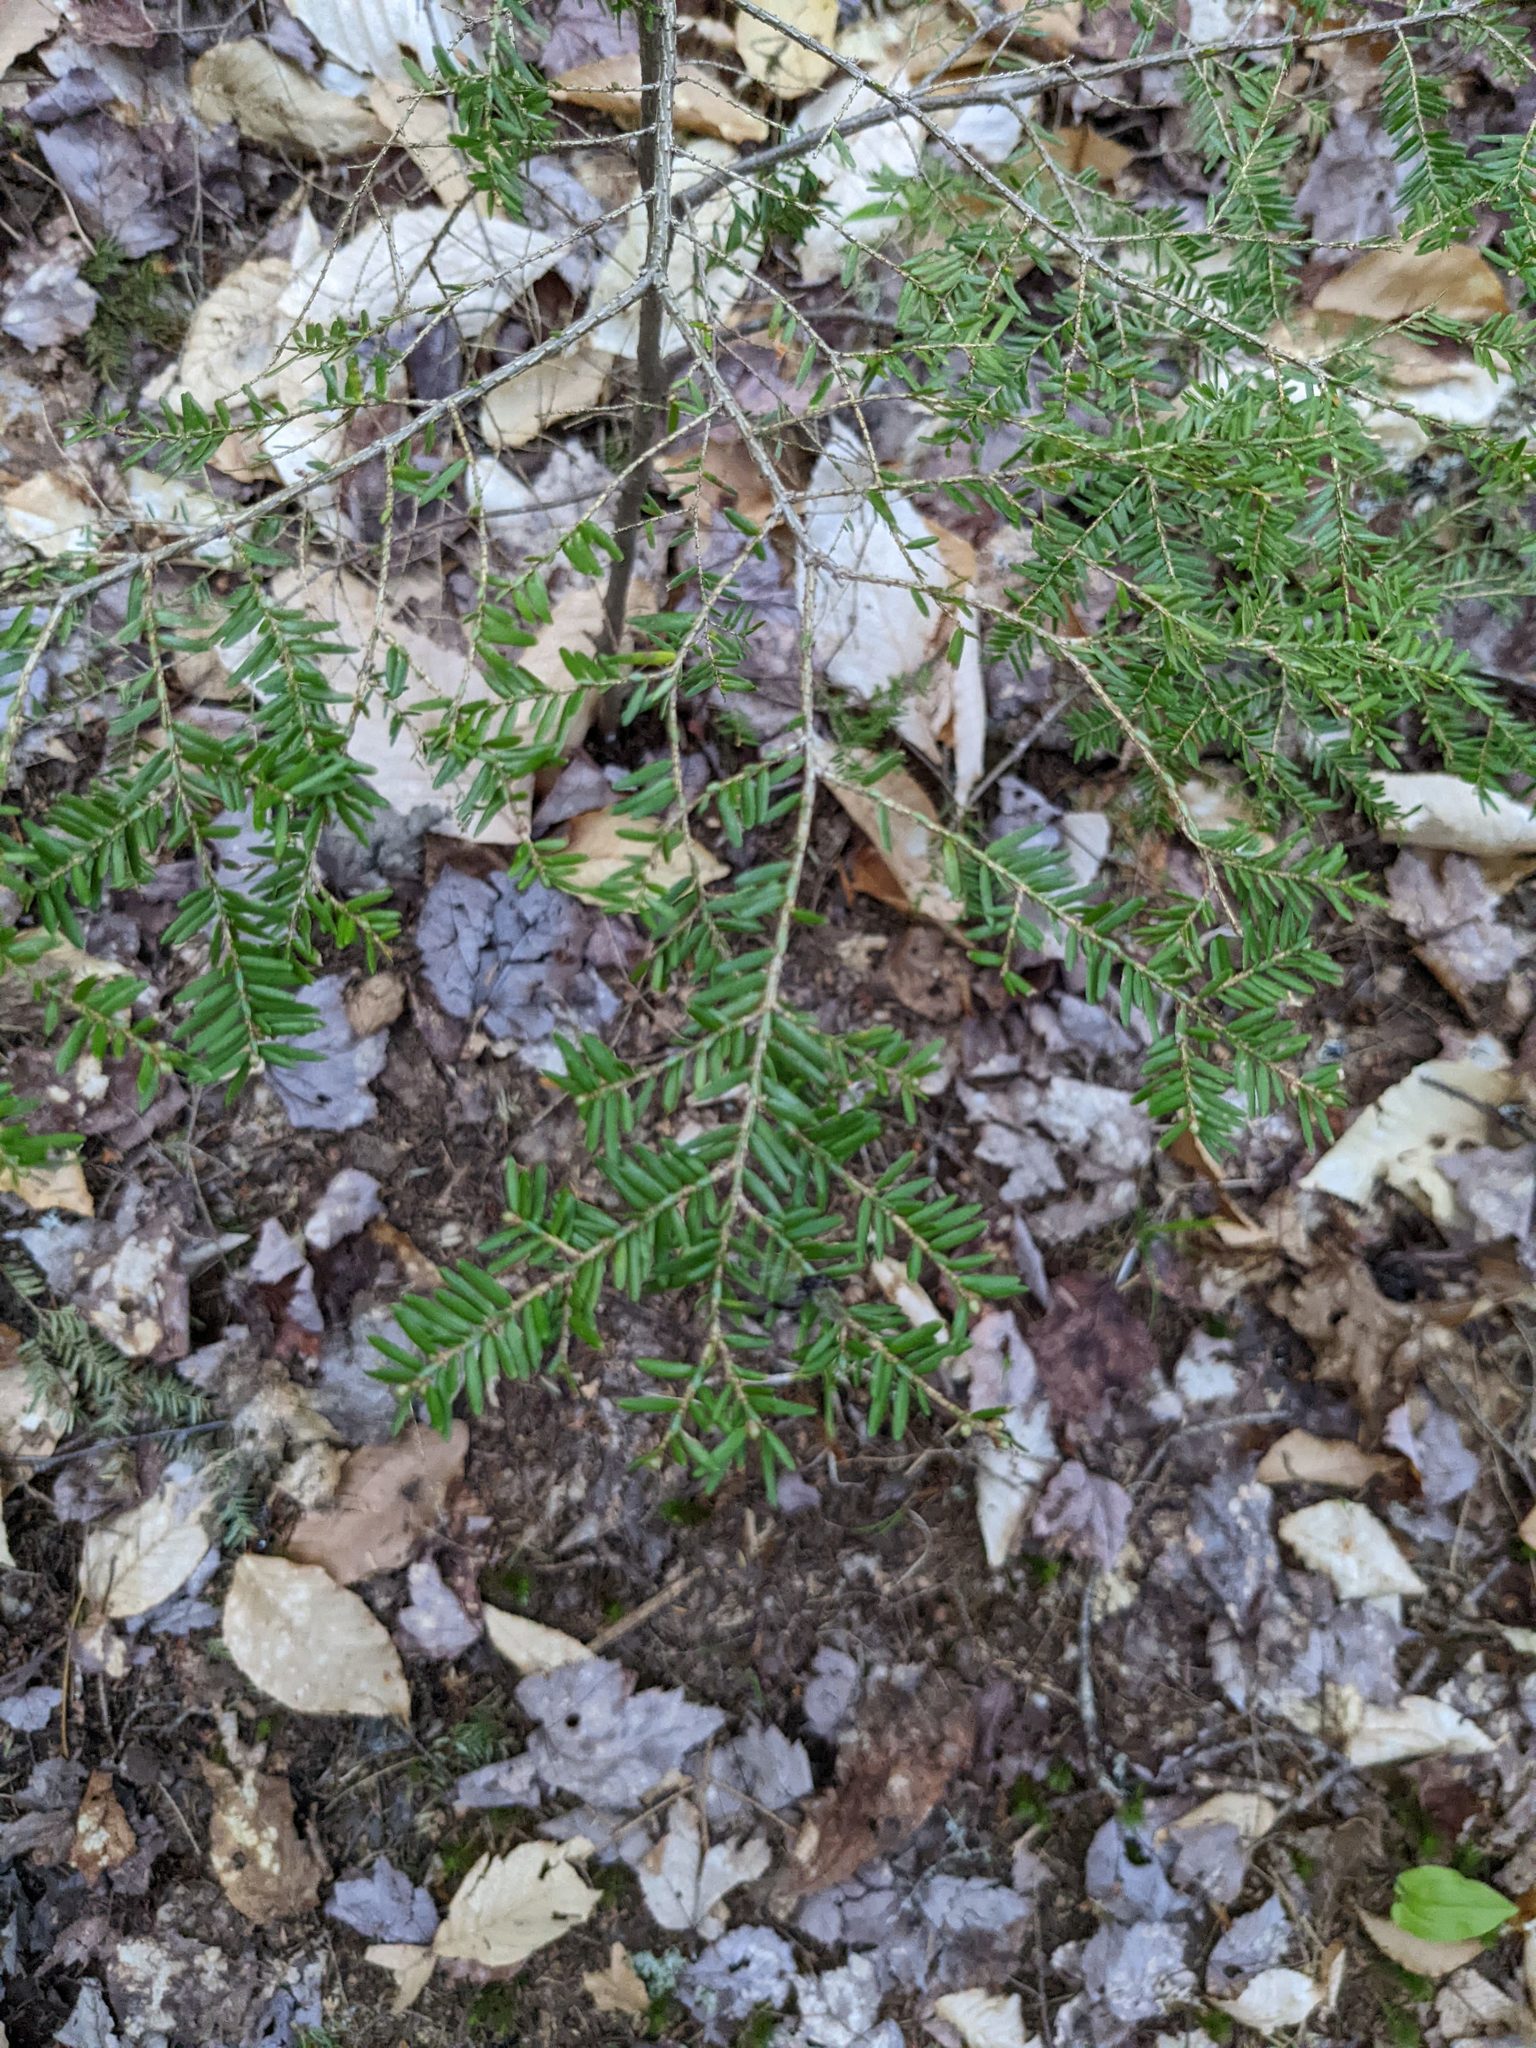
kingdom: Plantae
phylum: Tracheophyta
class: Pinopsida
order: Pinales
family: Pinaceae
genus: Tsuga
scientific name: Tsuga canadensis
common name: Eastern hemlock
